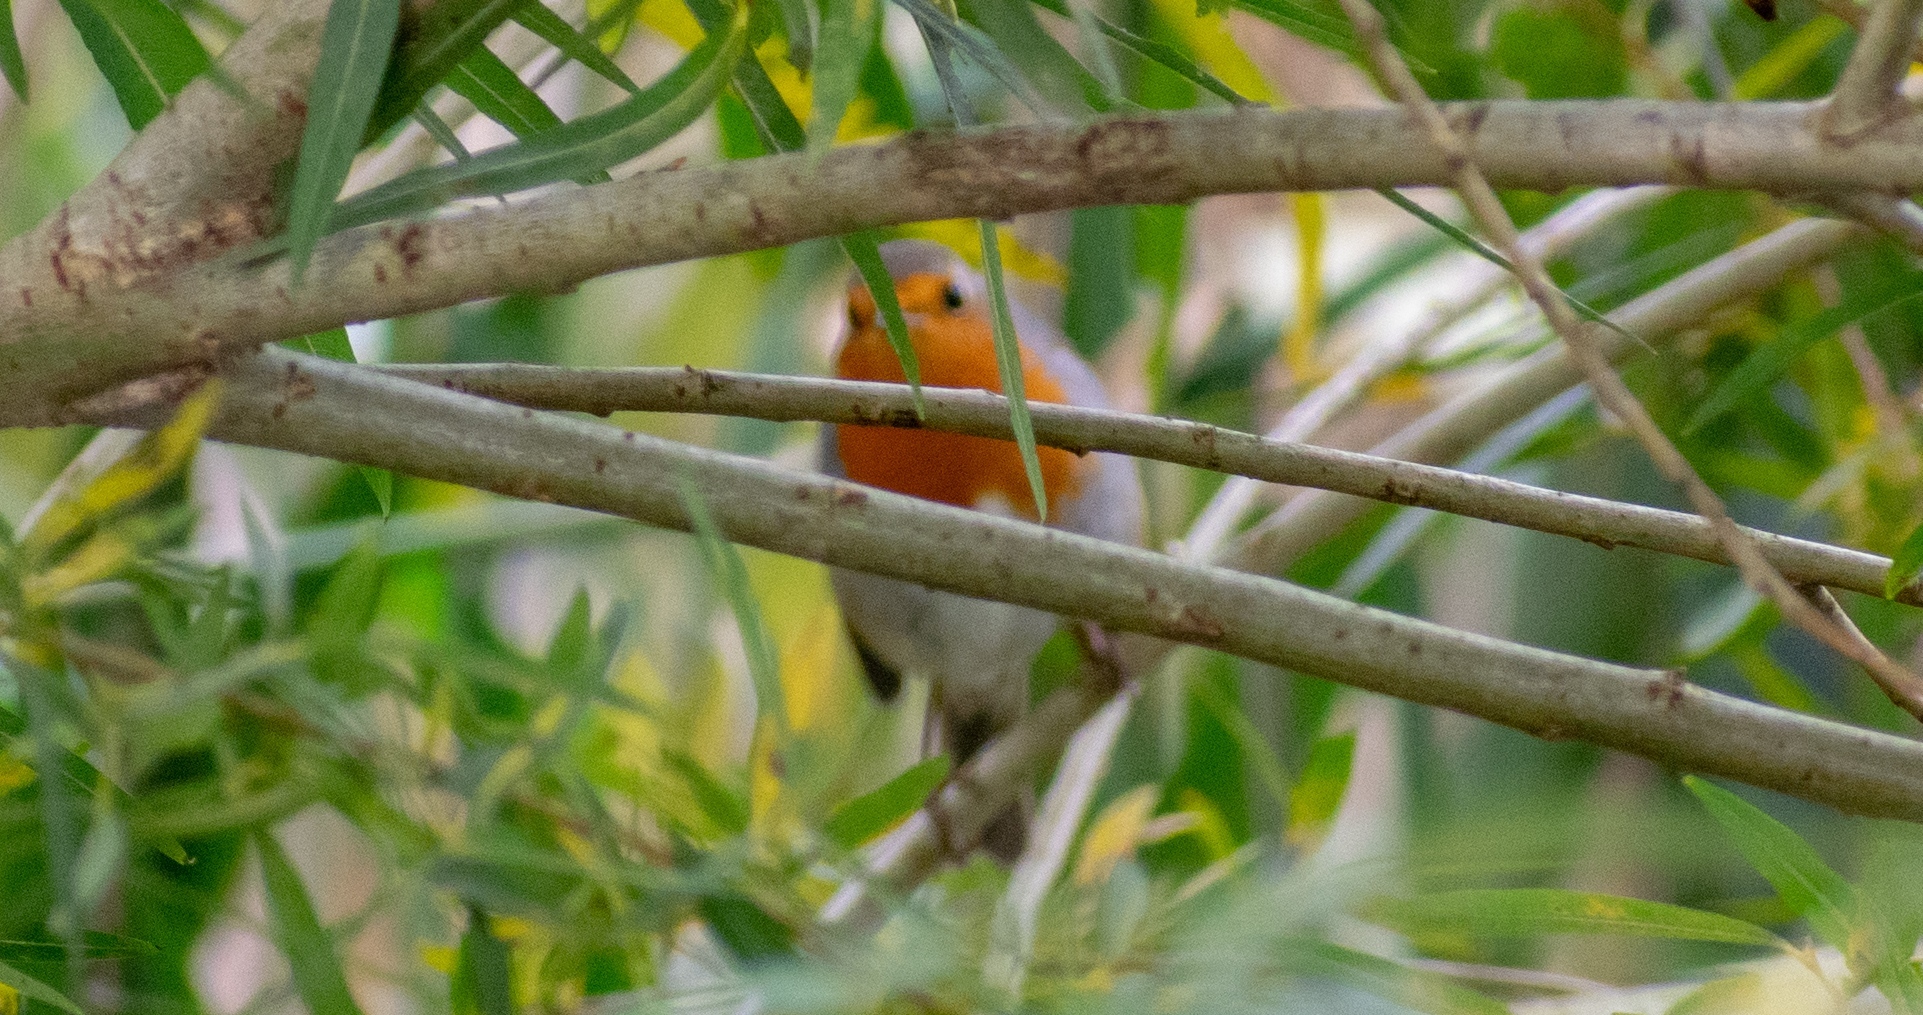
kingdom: Animalia
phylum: Chordata
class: Aves
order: Passeriformes
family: Muscicapidae
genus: Erithacus
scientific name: Erithacus rubecula
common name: European robin
